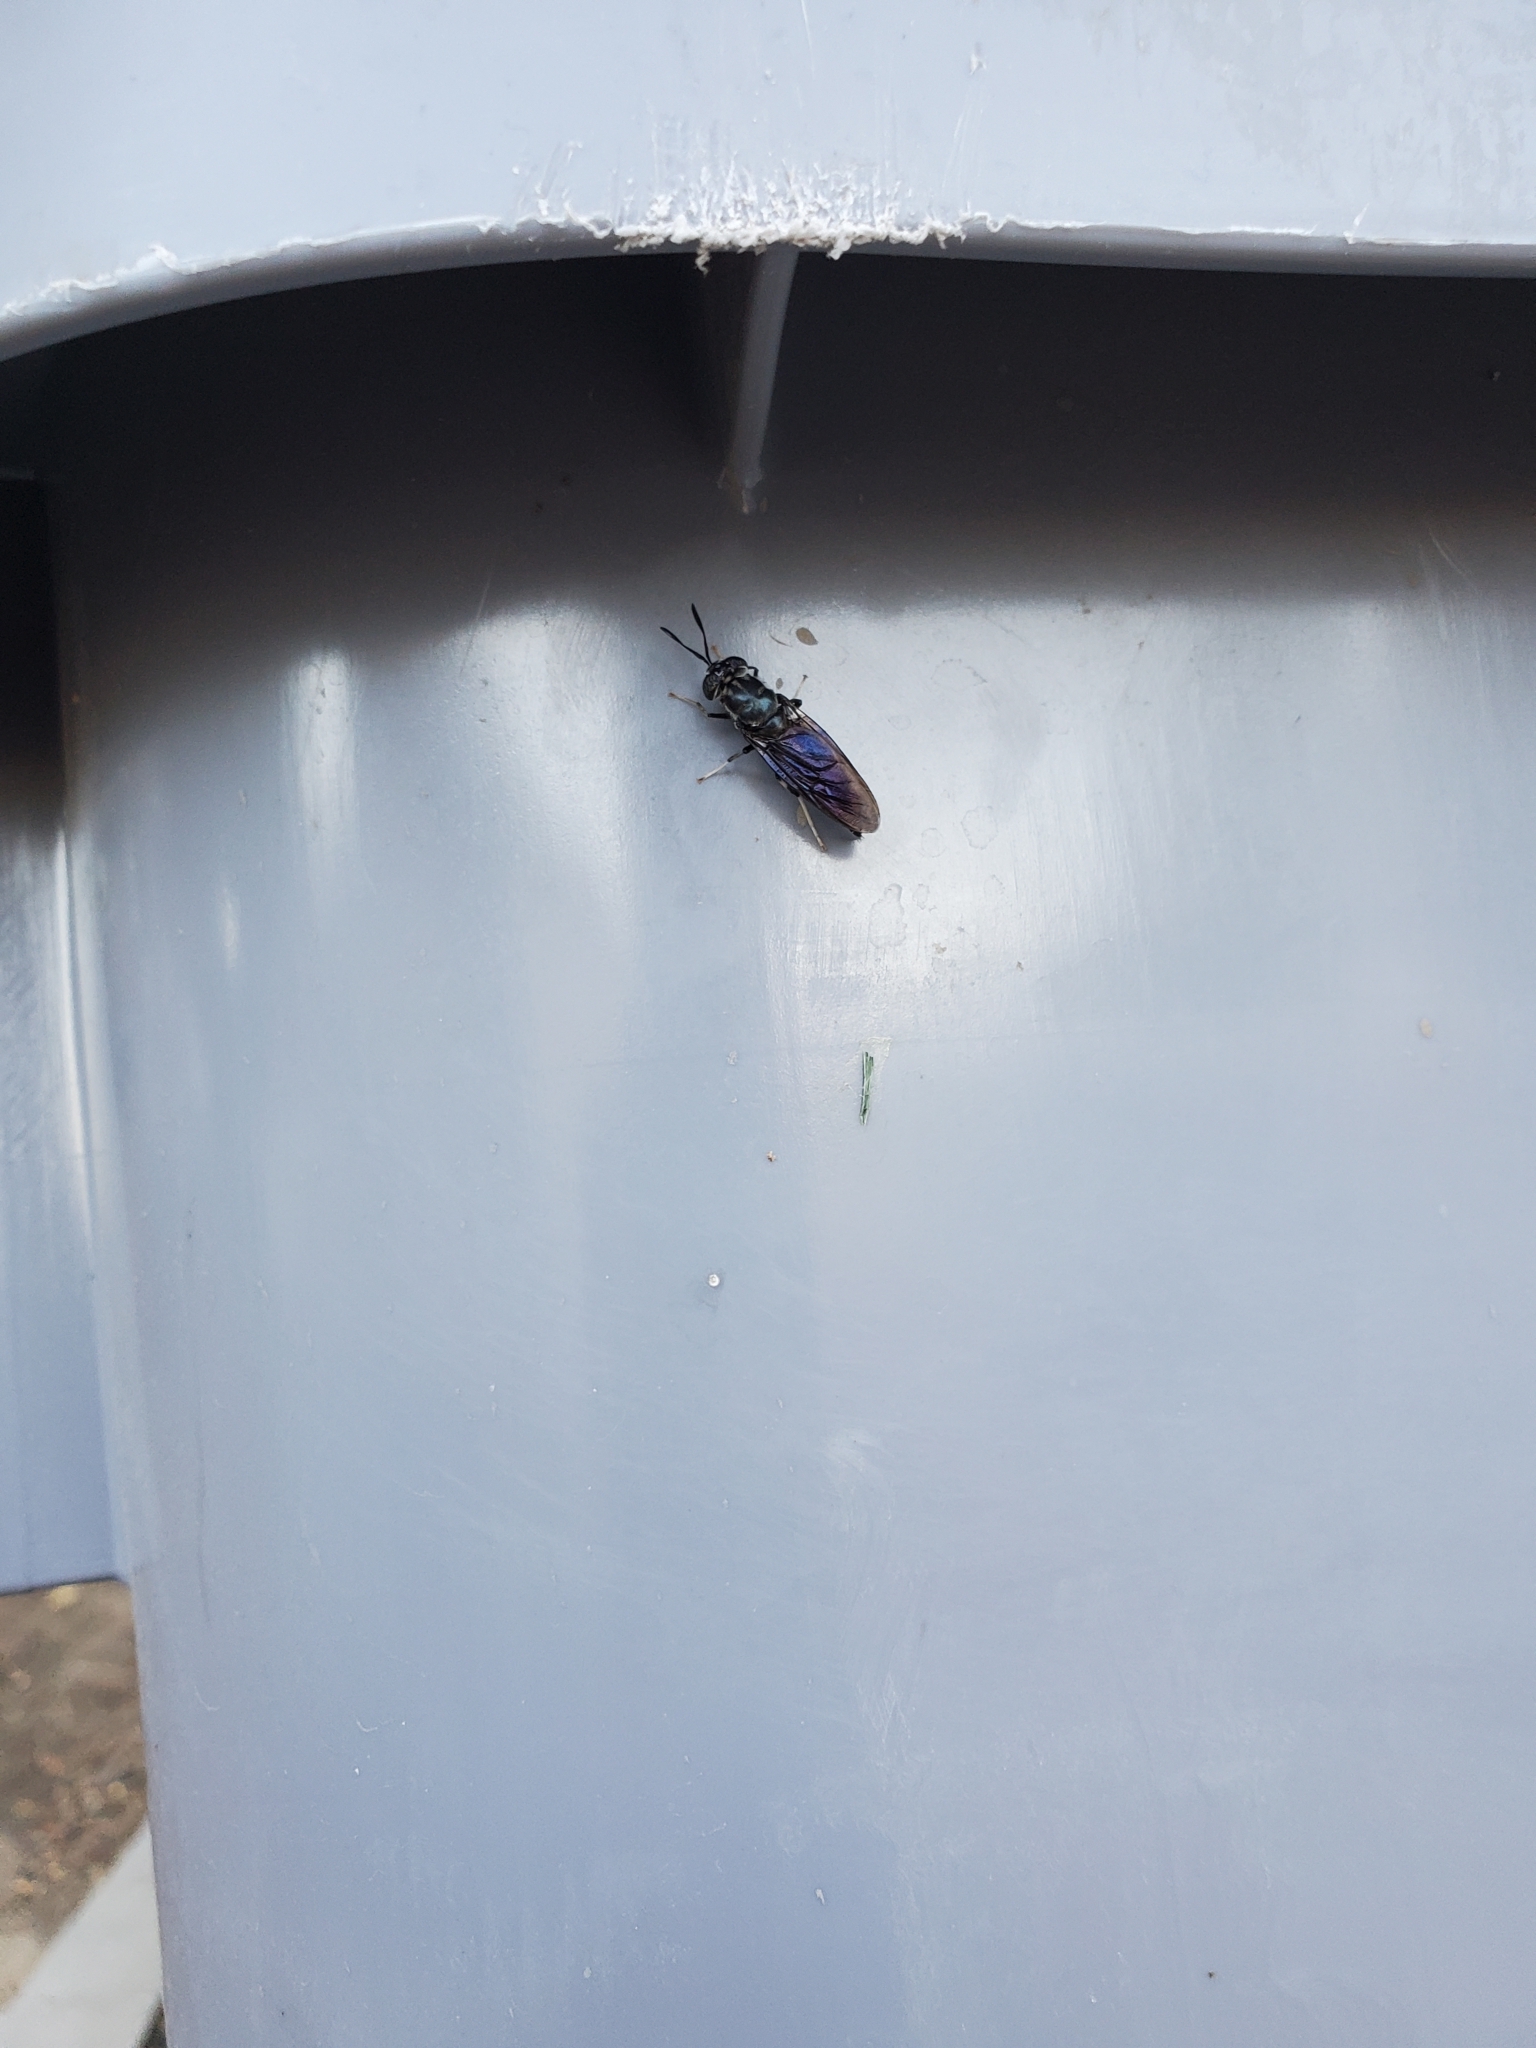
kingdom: Animalia
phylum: Arthropoda
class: Insecta
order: Diptera
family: Stratiomyidae
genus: Hermetia
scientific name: Hermetia illucens
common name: Black soldier fly
